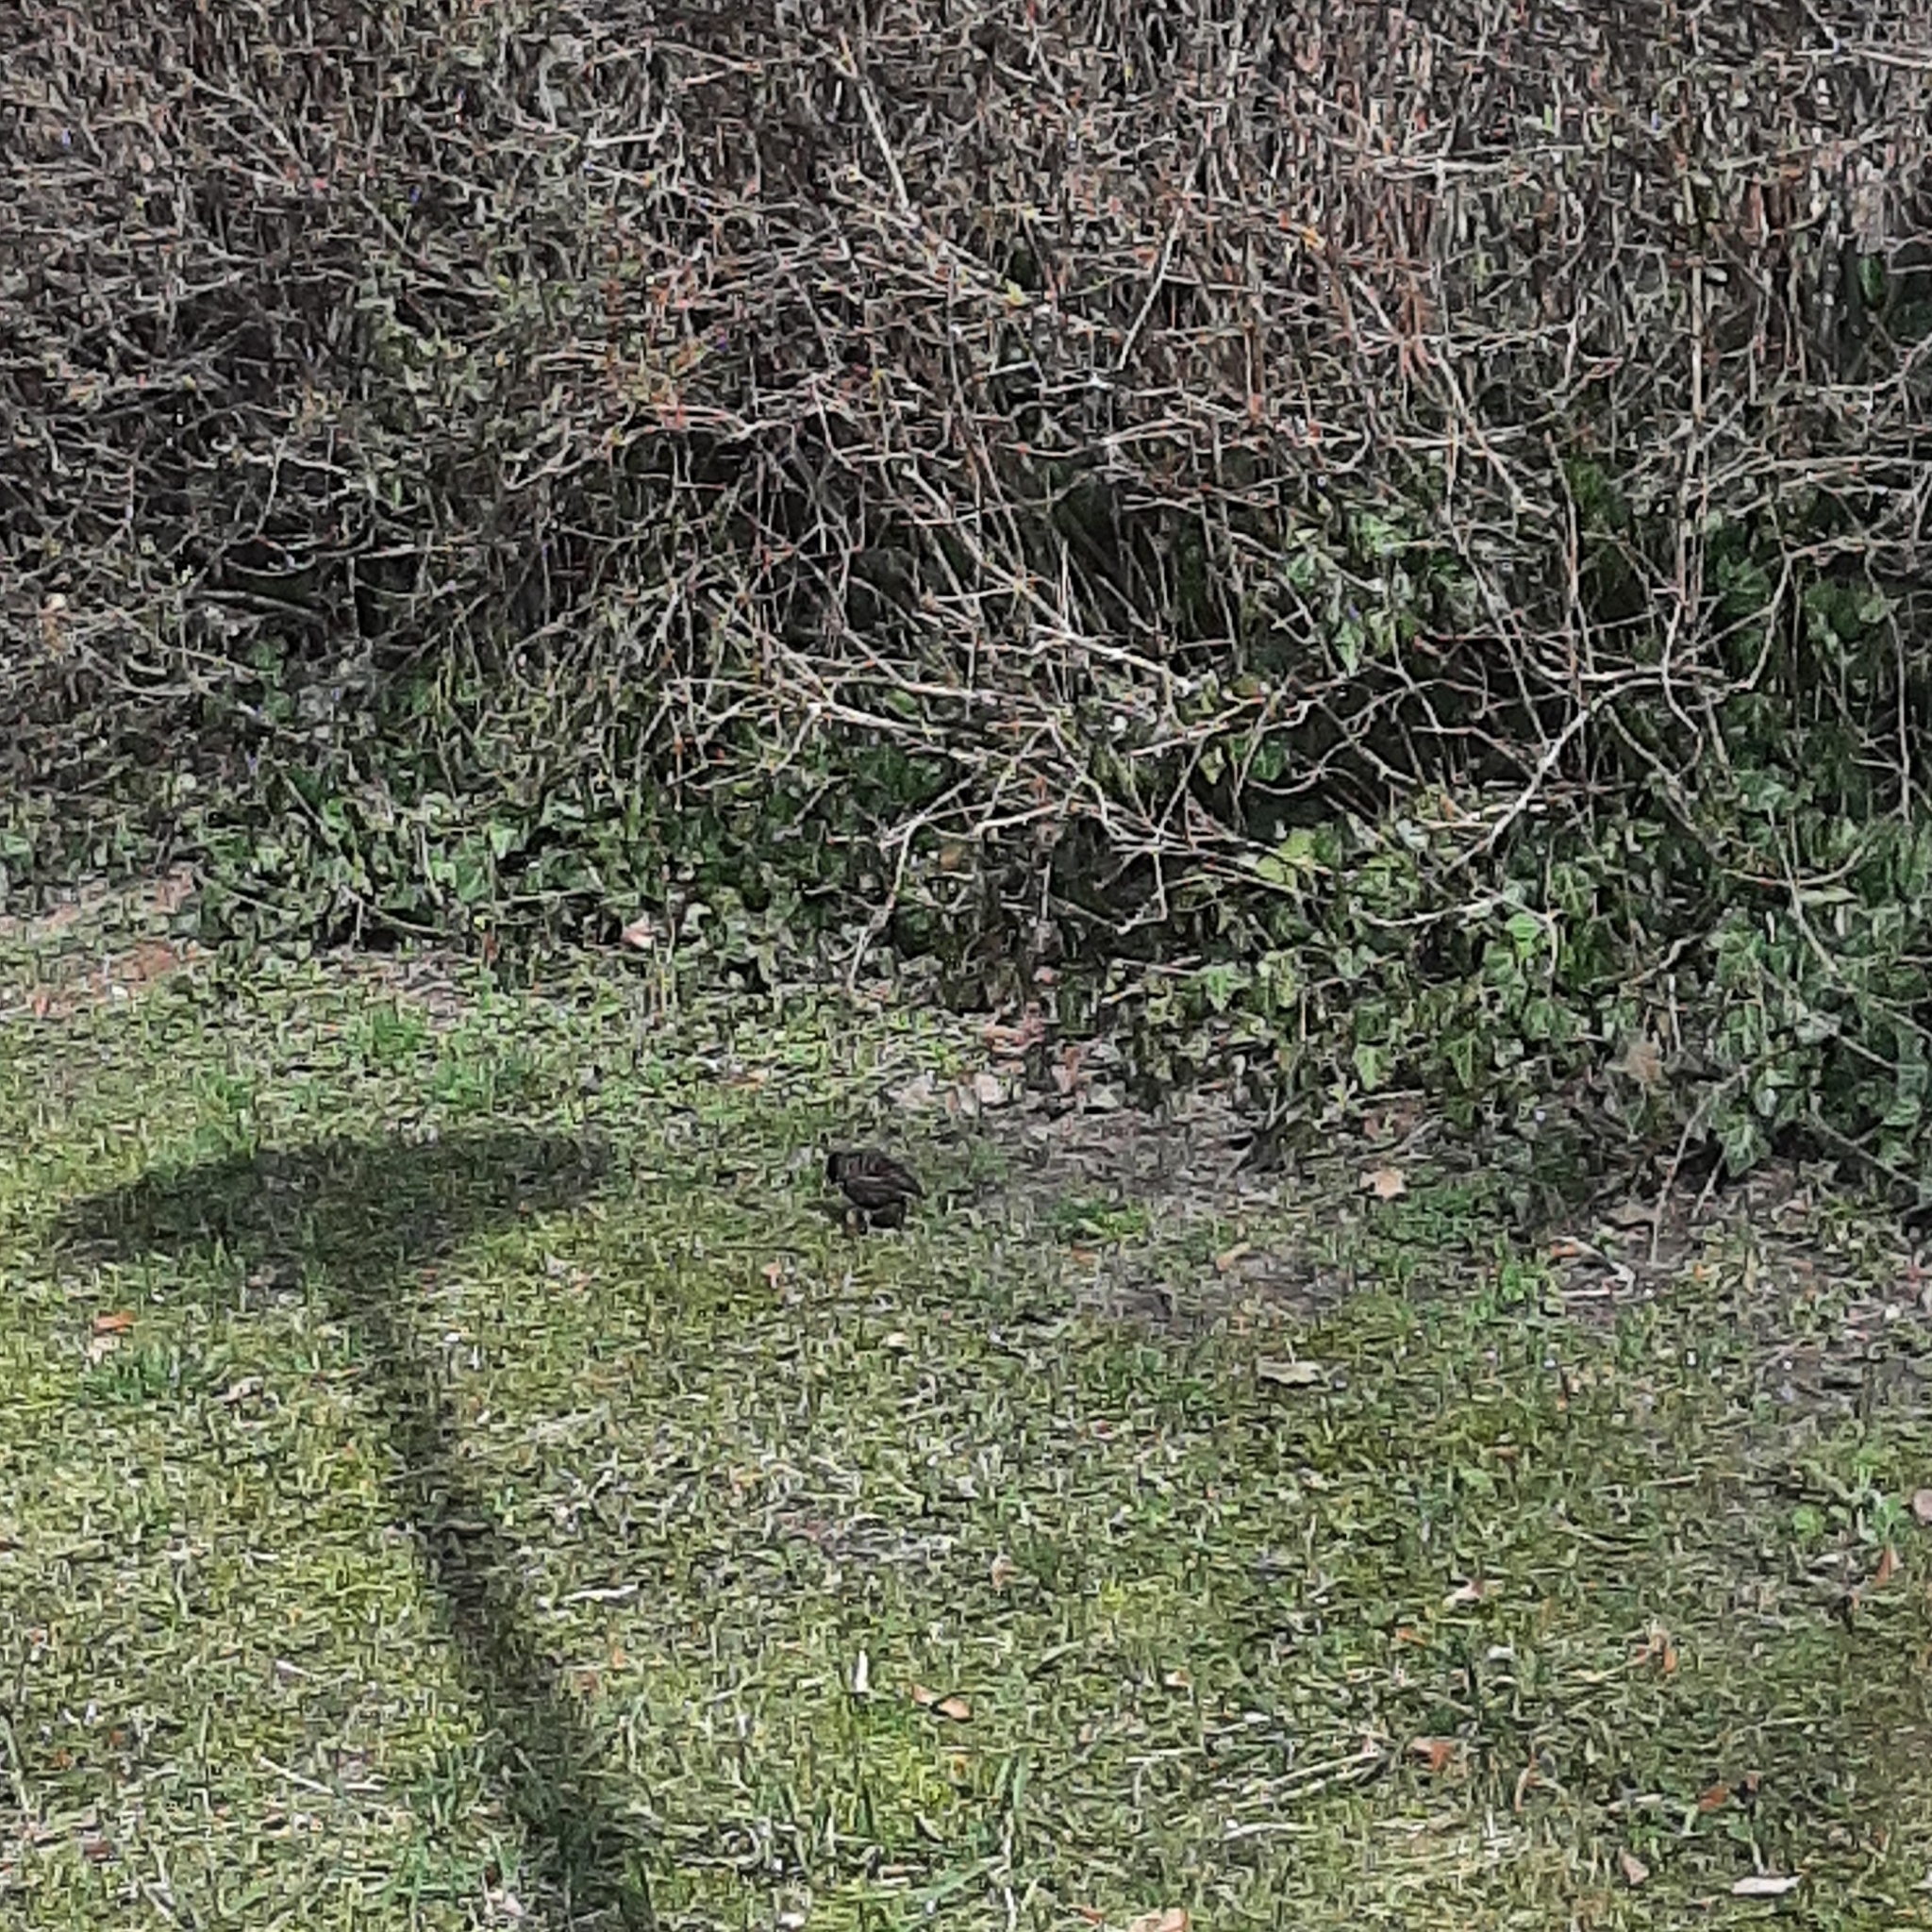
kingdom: Animalia
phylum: Chordata
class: Aves
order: Passeriformes
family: Sturnidae
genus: Sturnus
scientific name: Sturnus vulgaris
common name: Common starling
